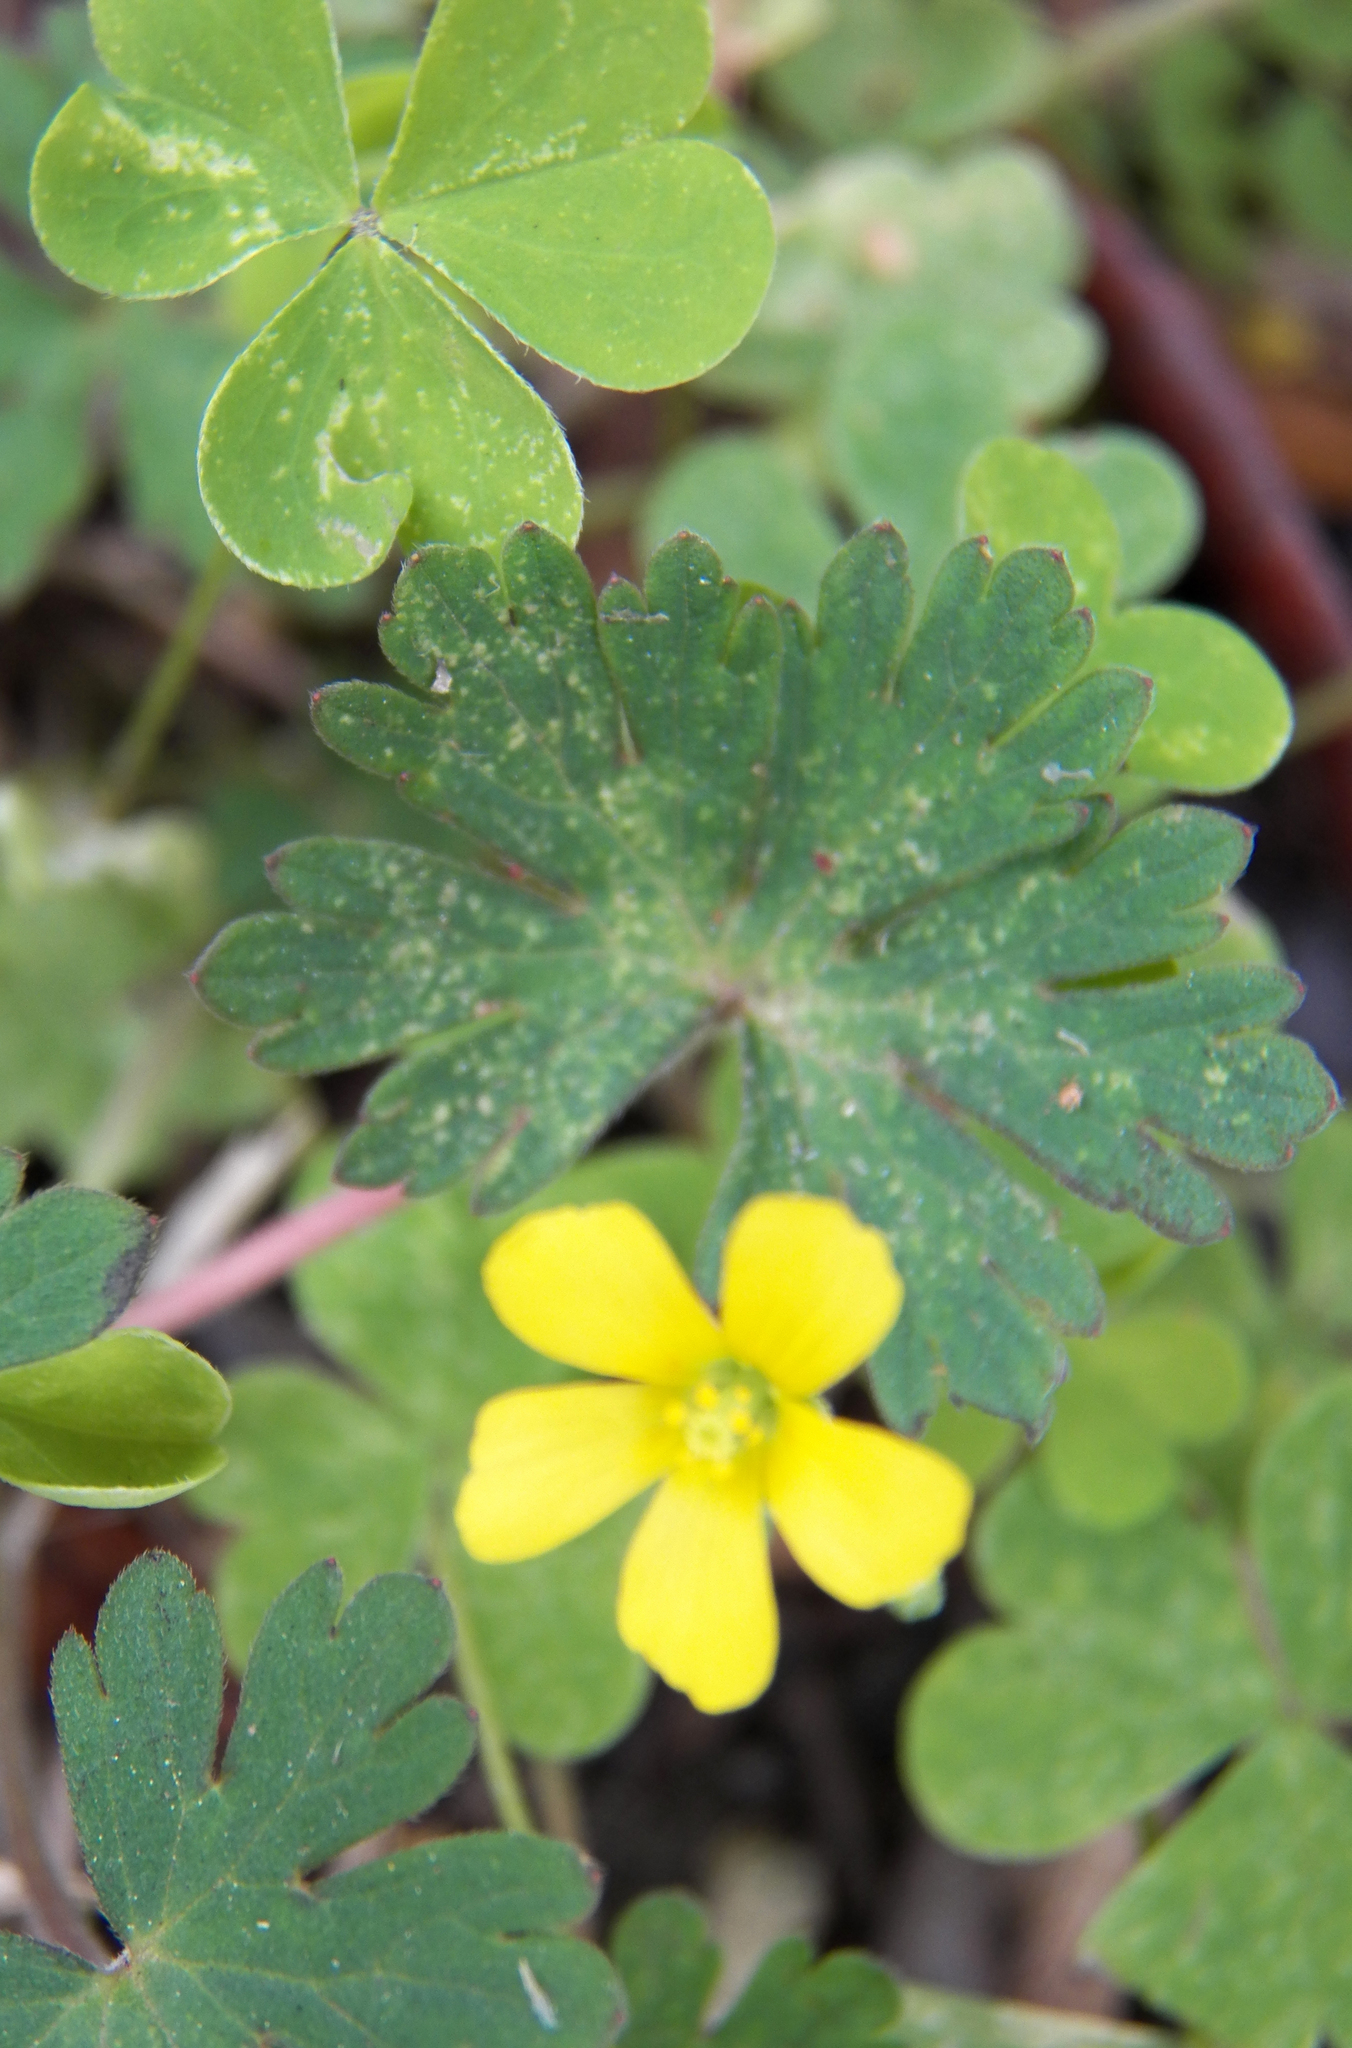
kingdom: Plantae
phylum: Tracheophyta
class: Magnoliopsida
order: Oxalidales
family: Oxalidaceae
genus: Oxalis
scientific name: Oxalis corniculata
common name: Procumbent yellow-sorrel
